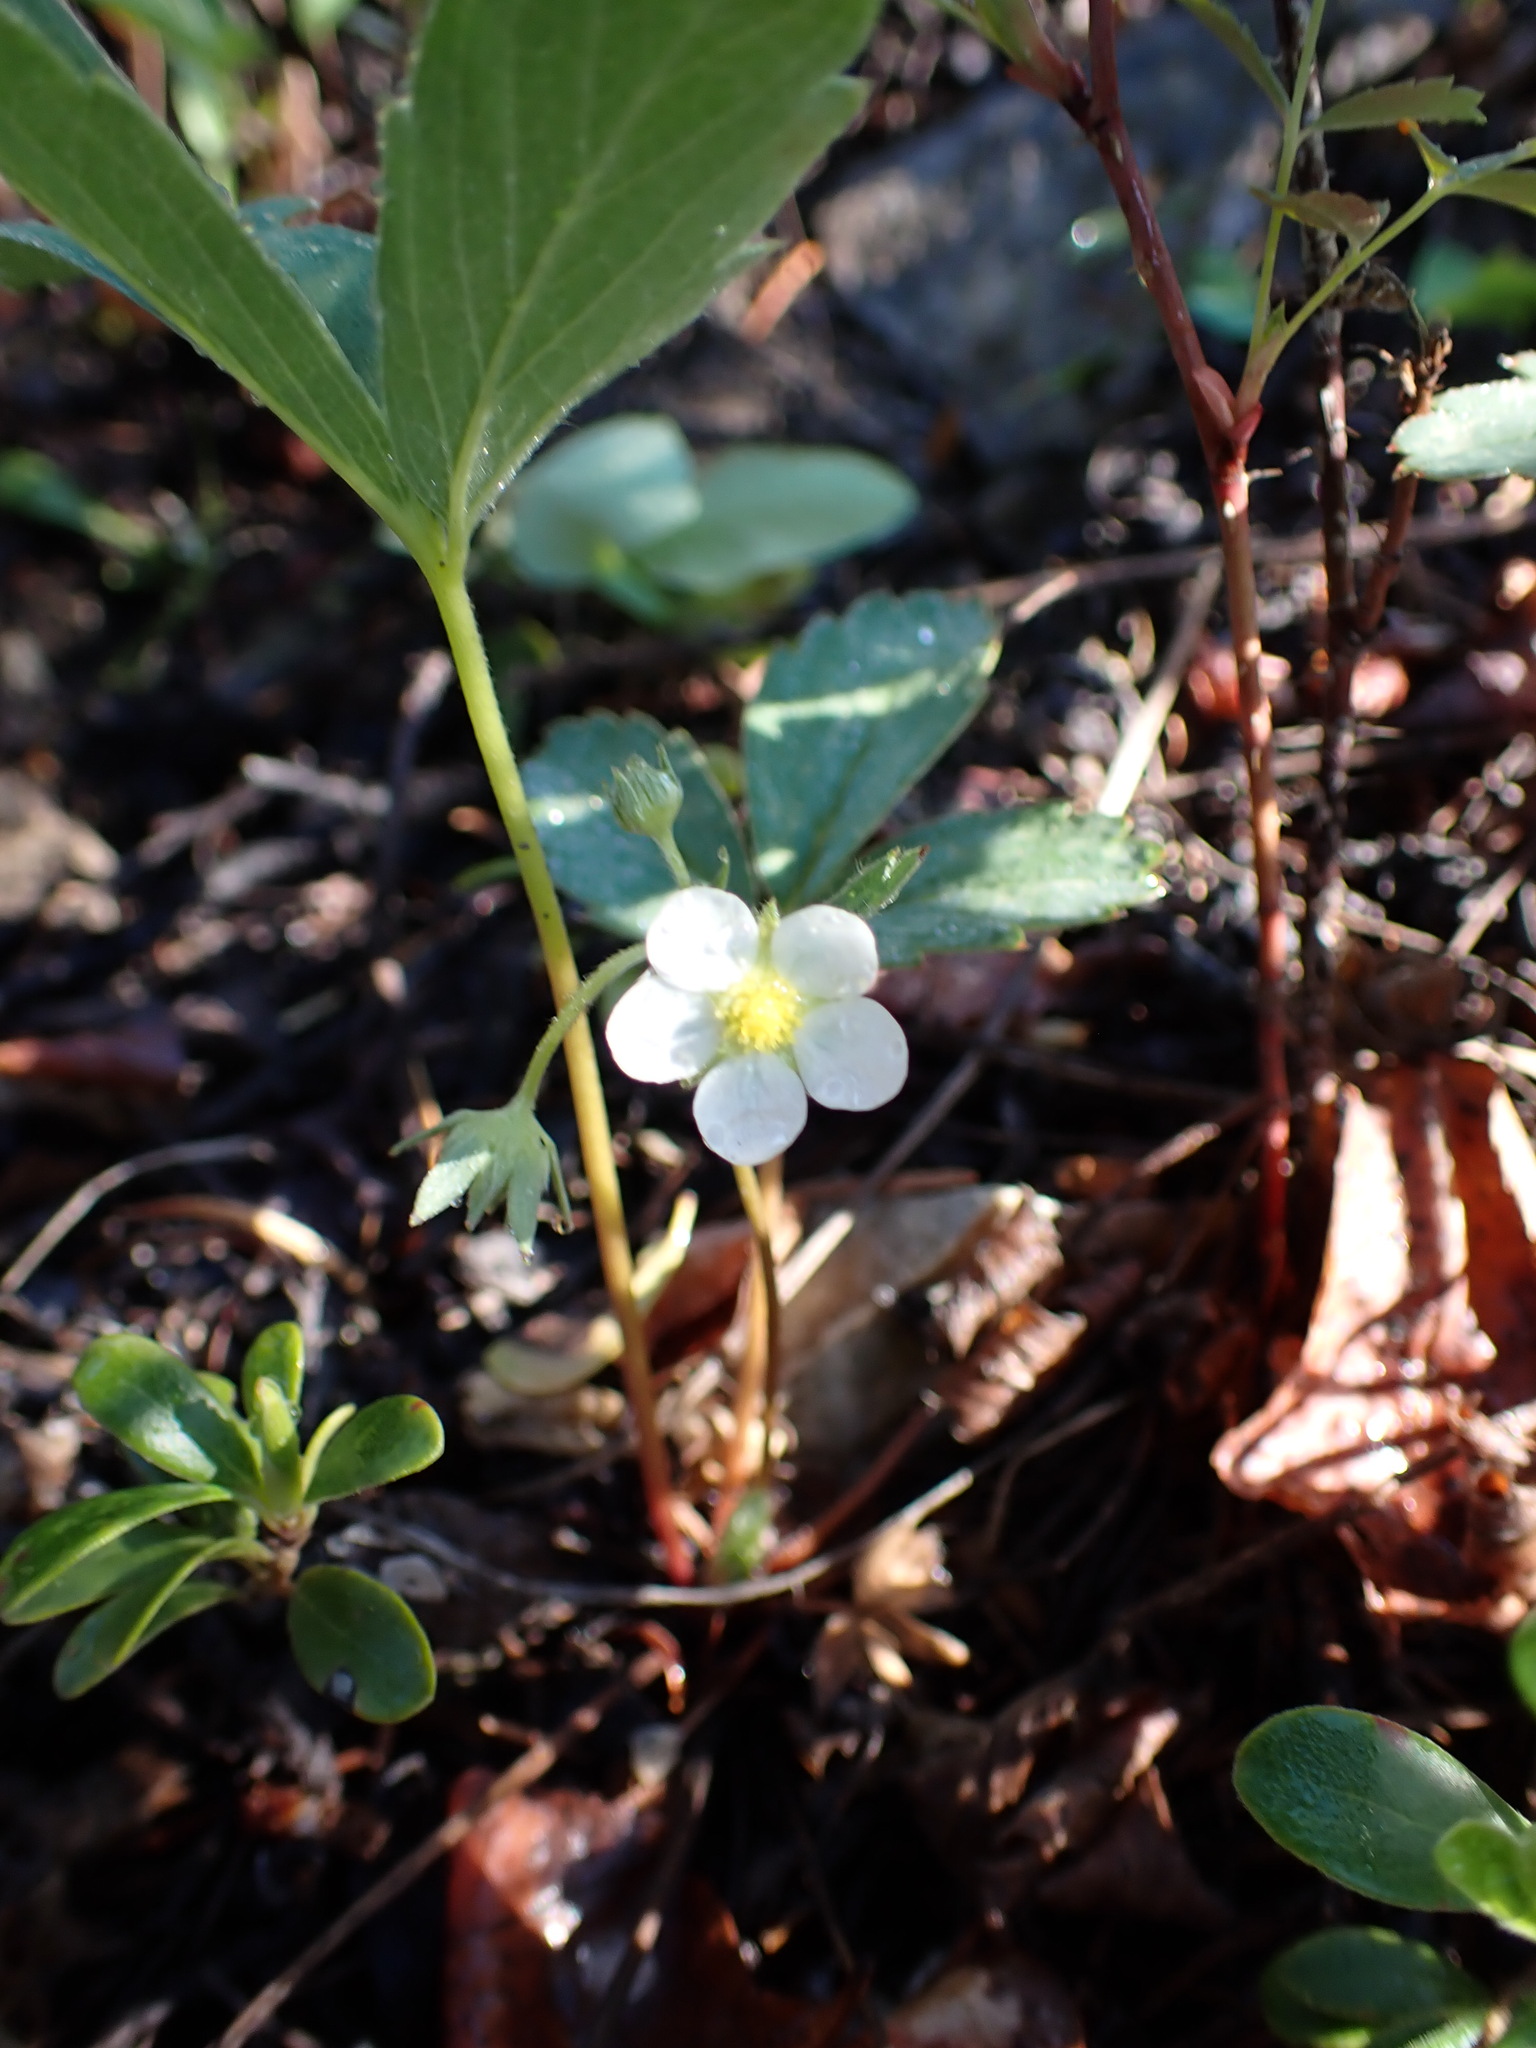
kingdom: Plantae
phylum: Tracheophyta
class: Magnoliopsida
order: Rosales
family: Rosaceae
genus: Fragaria
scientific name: Fragaria virginiana
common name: Thickleaved wild strawberry
